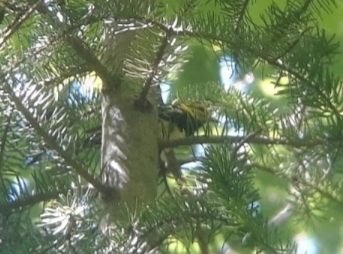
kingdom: Animalia
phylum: Chordata
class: Aves
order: Passeriformes
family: Parulidae
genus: Setophaga
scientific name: Setophaga virens
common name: Black-throated green warbler
